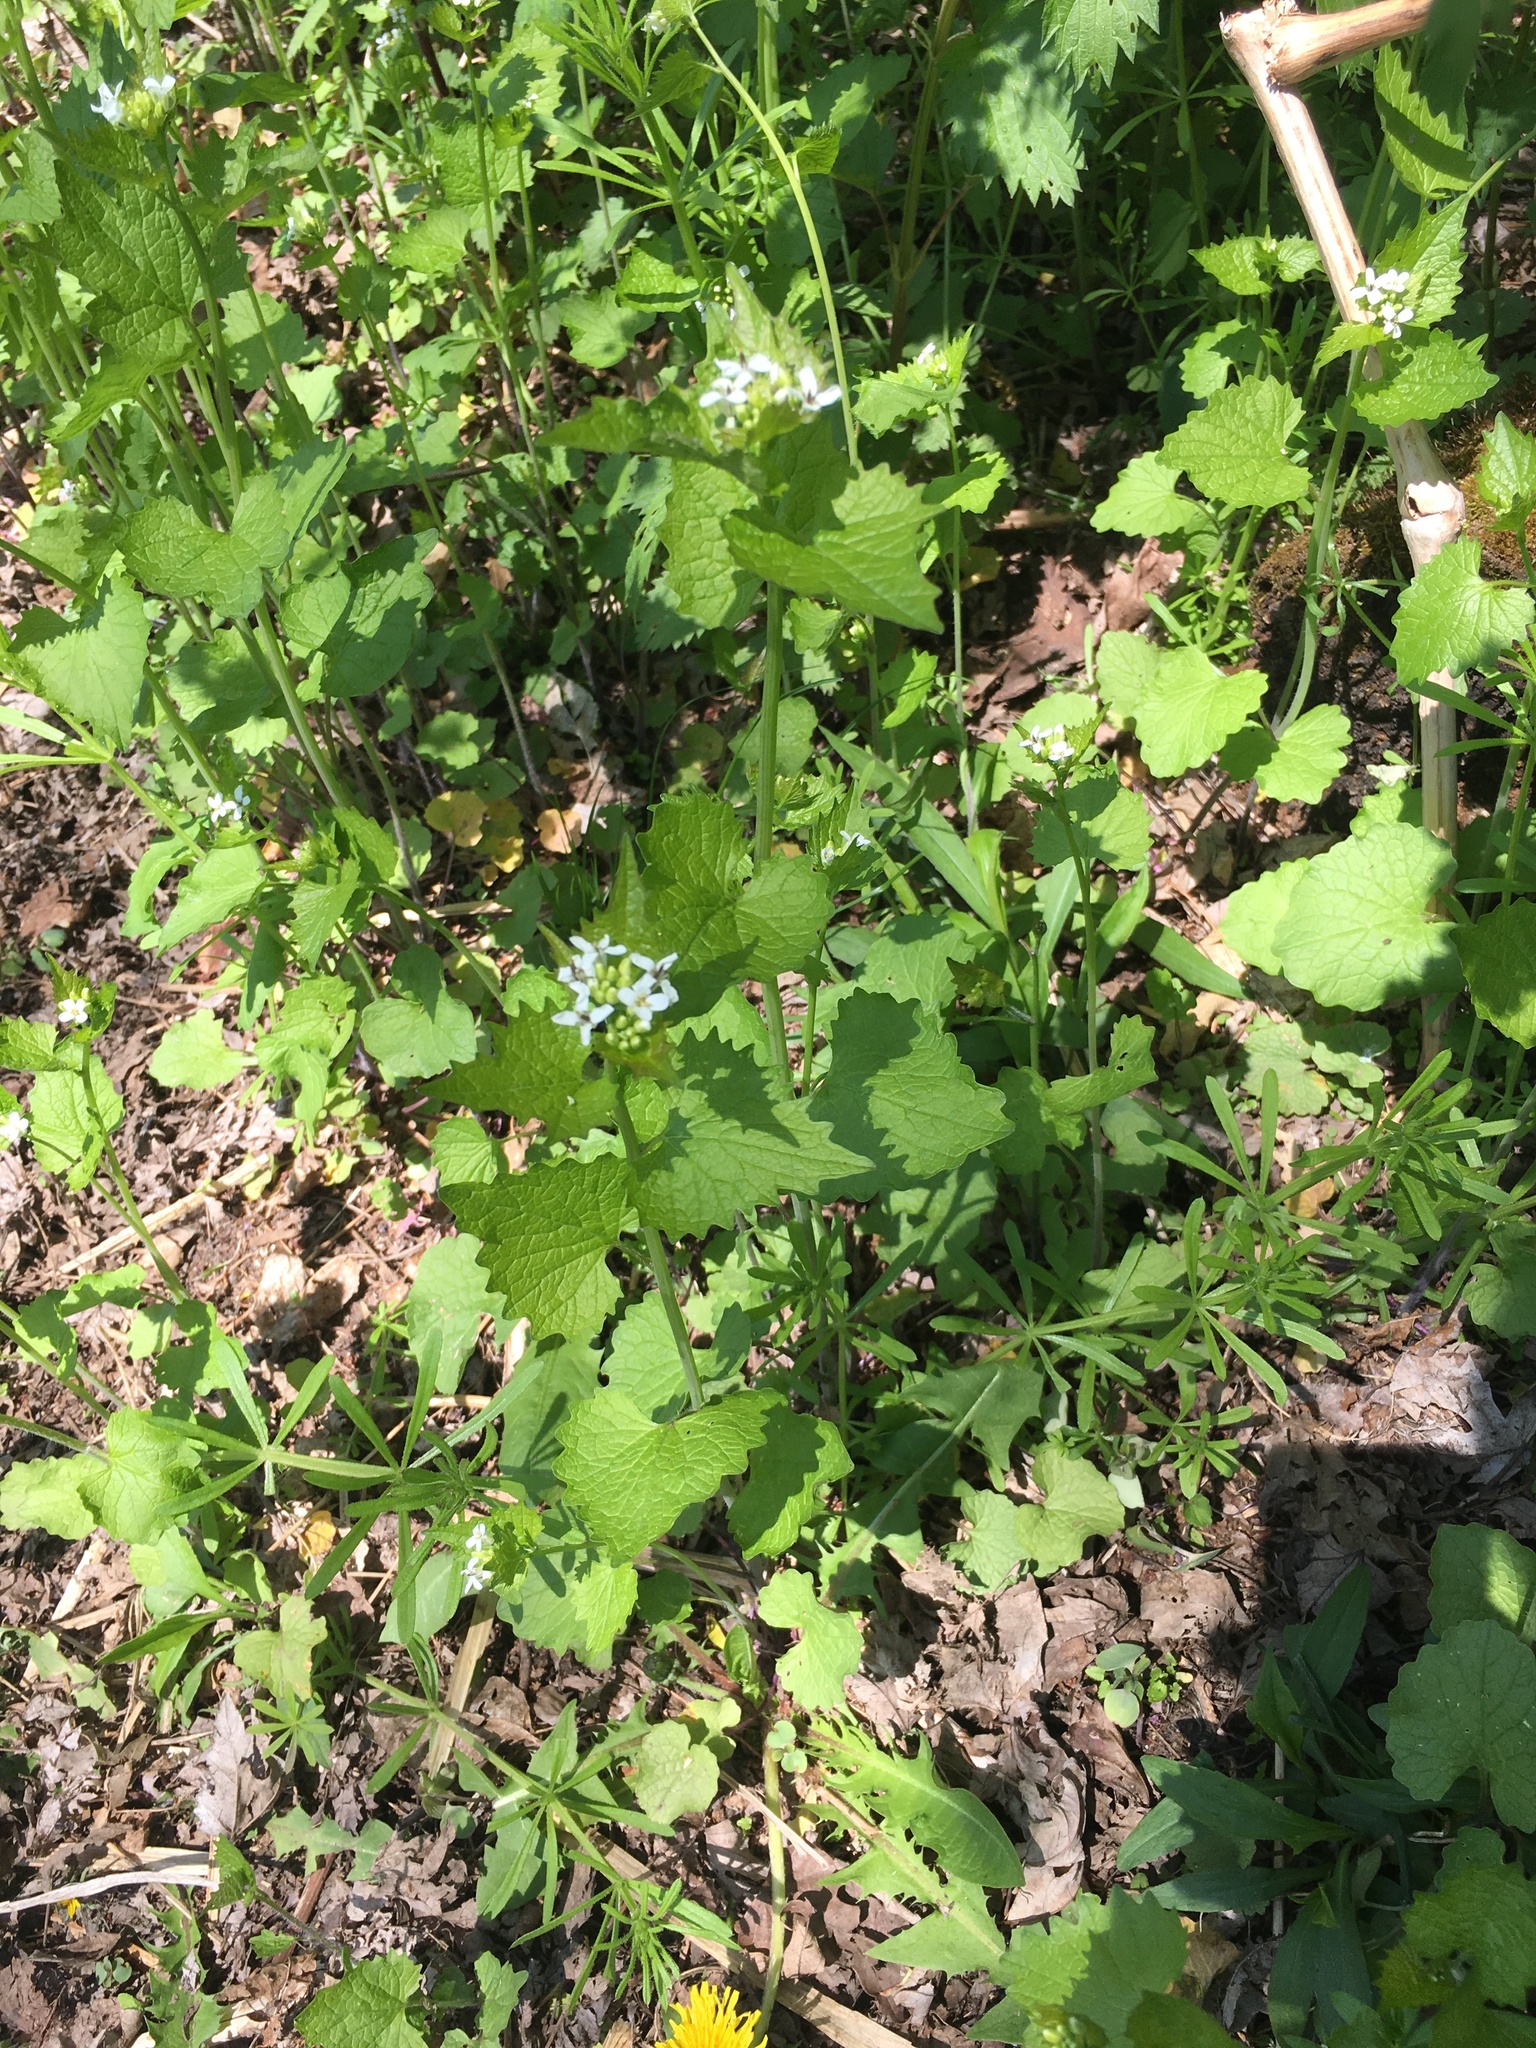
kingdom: Plantae
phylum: Tracheophyta
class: Magnoliopsida
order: Brassicales
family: Brassicaceae
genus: Alliaria
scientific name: Alliaria petiolata
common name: Garlic mustard
